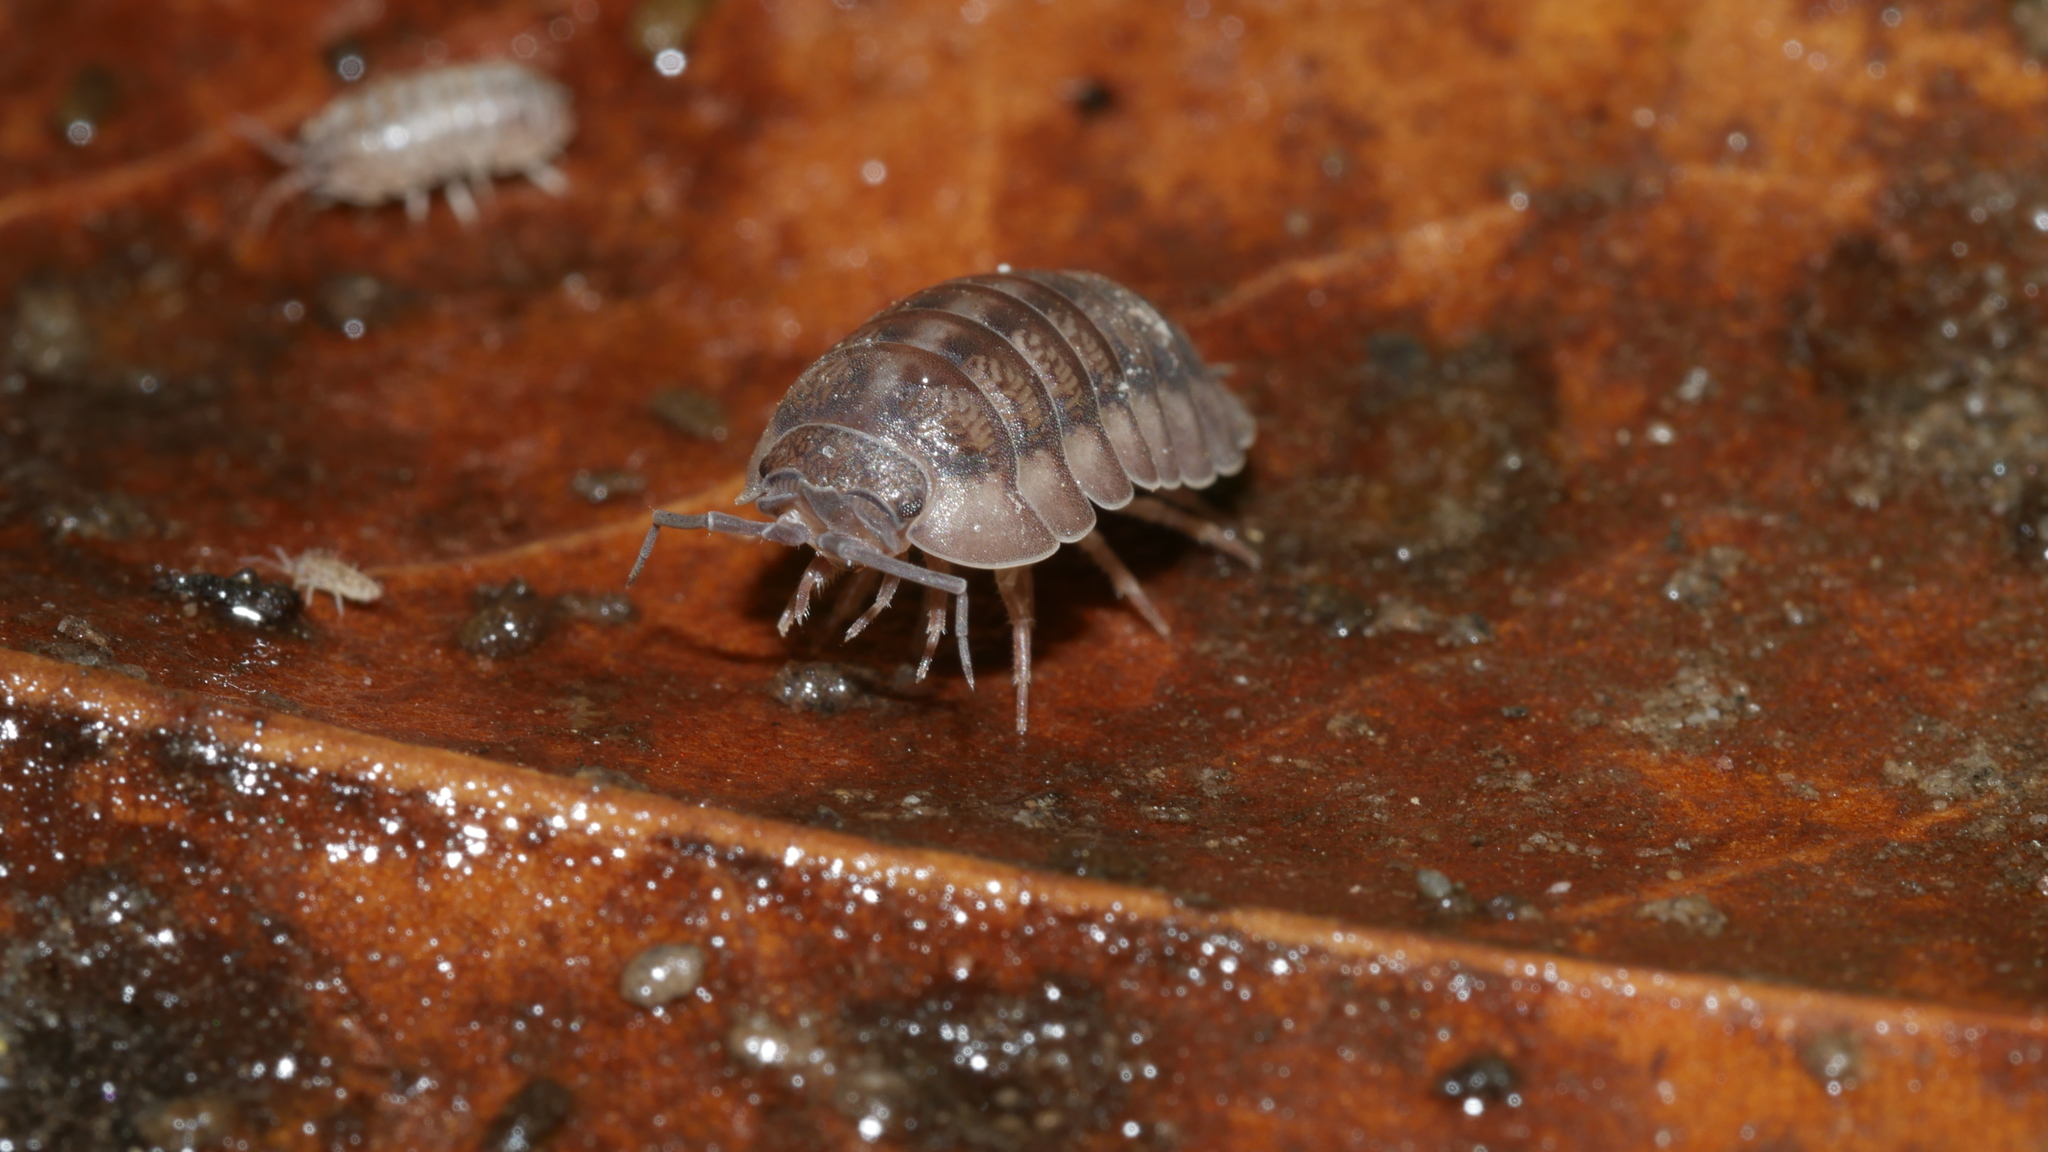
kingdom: Animalia
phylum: Arthropoda
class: Malacostraca
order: Isopoda
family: Armadillidiidae
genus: Armadillidium
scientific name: Armadillidium nasatum
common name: Isopod
